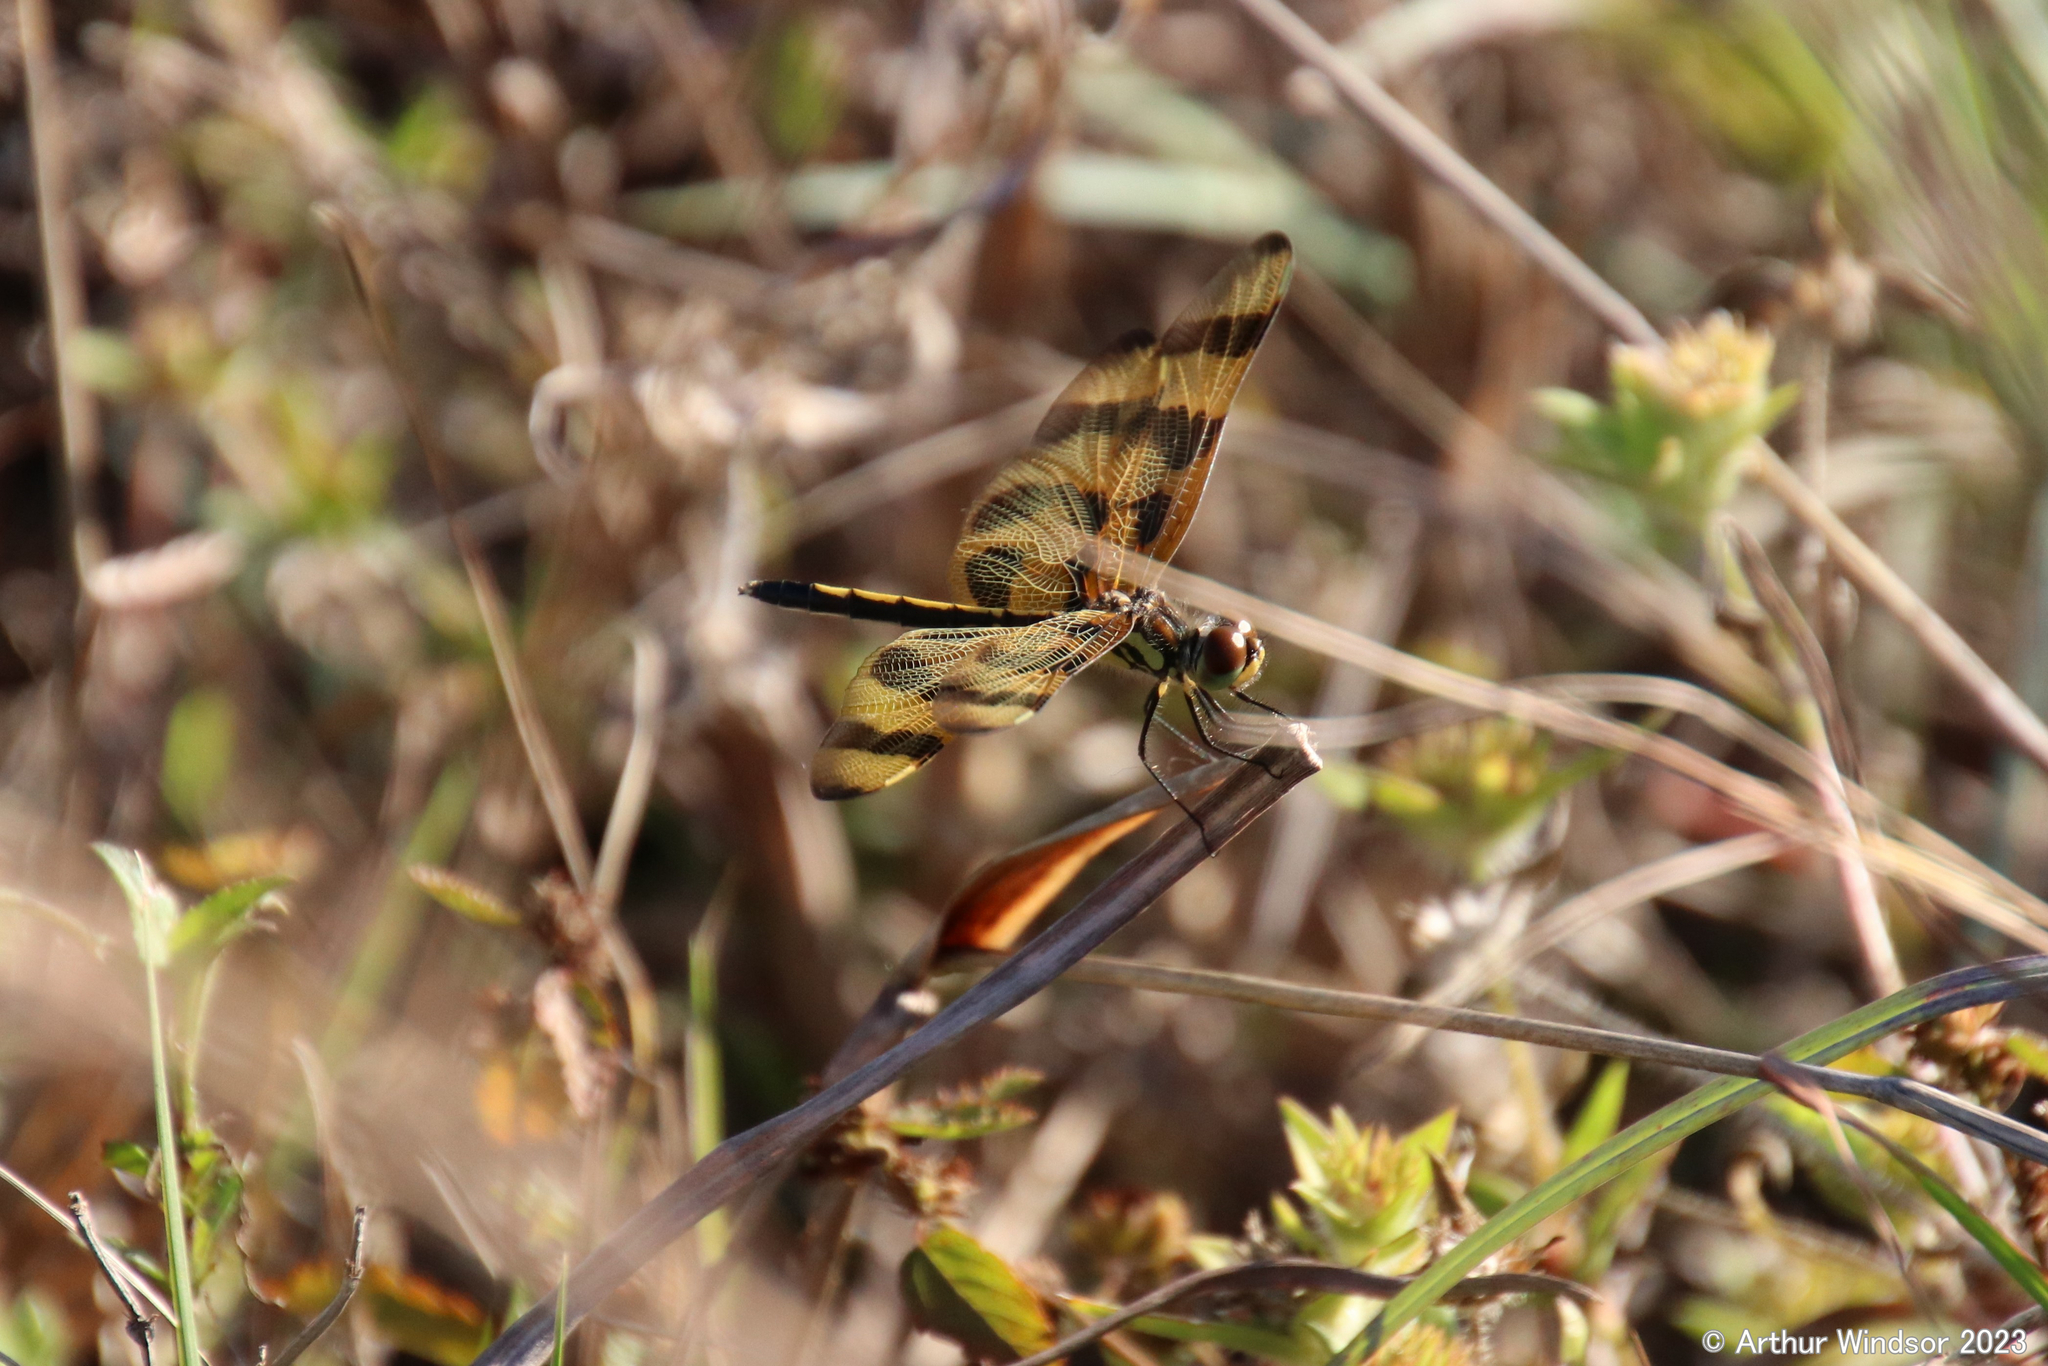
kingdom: Animalia
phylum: Arthropoda
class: Insecta
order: Odonata
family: Libellulidae
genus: Celithemis
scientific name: Celithemis eponina
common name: Halloween pennant
